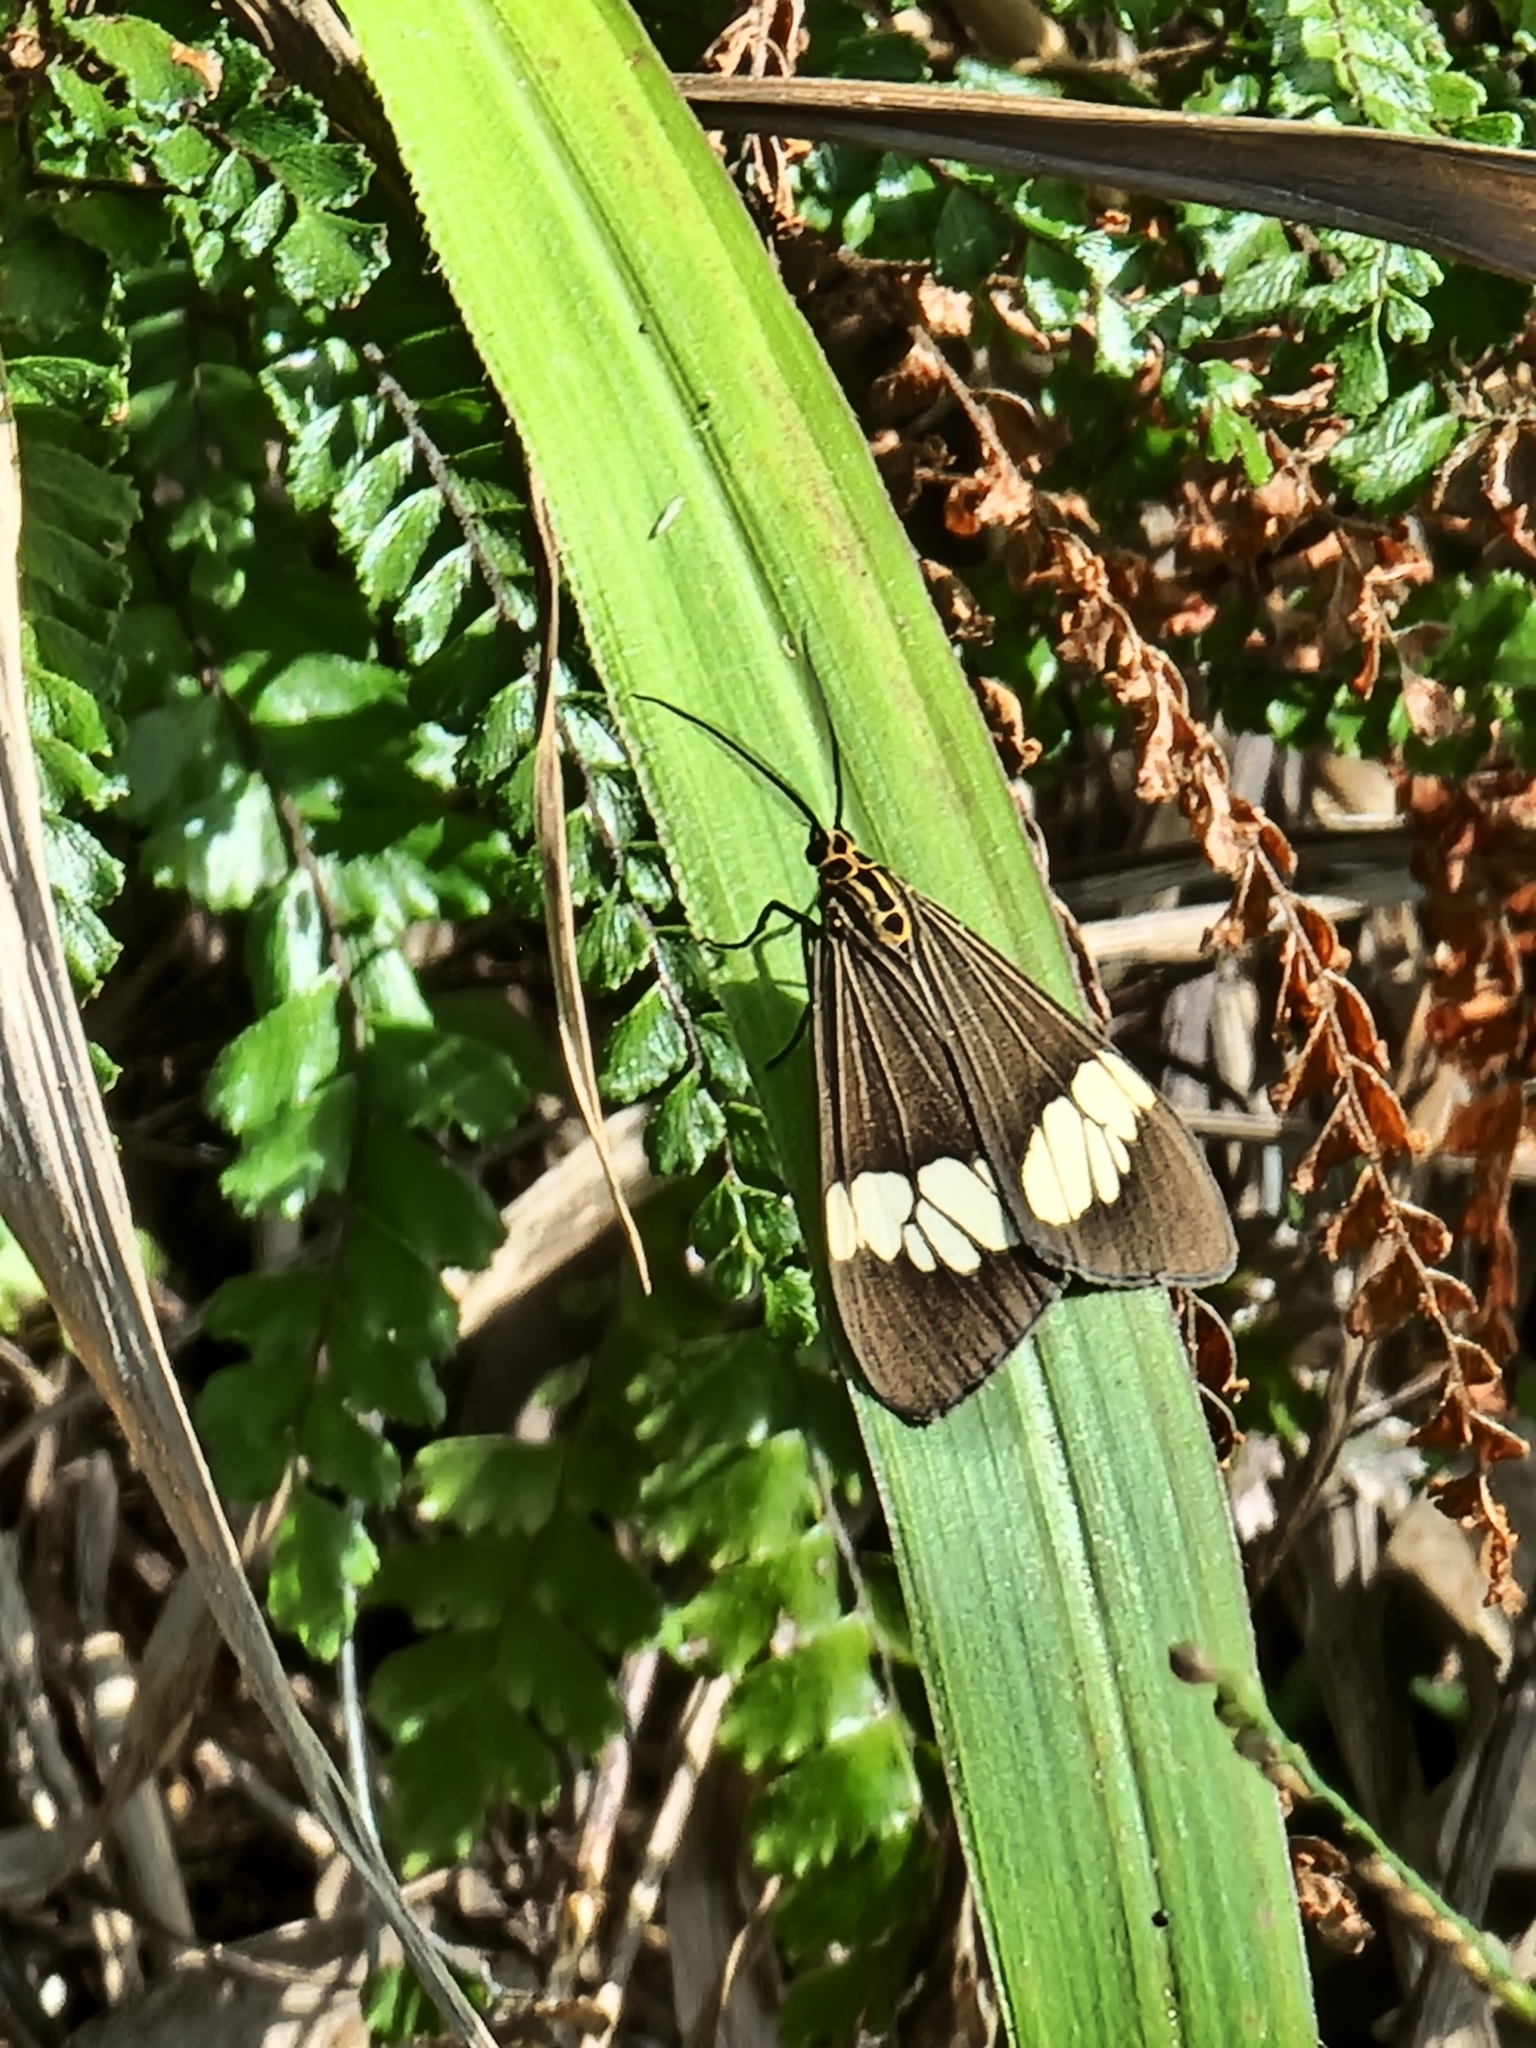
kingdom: Animalia
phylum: Arthropoda
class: Insecta
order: Lepidoptera
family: Erebidae
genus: Nyctemera
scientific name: Nyctemera baulus
